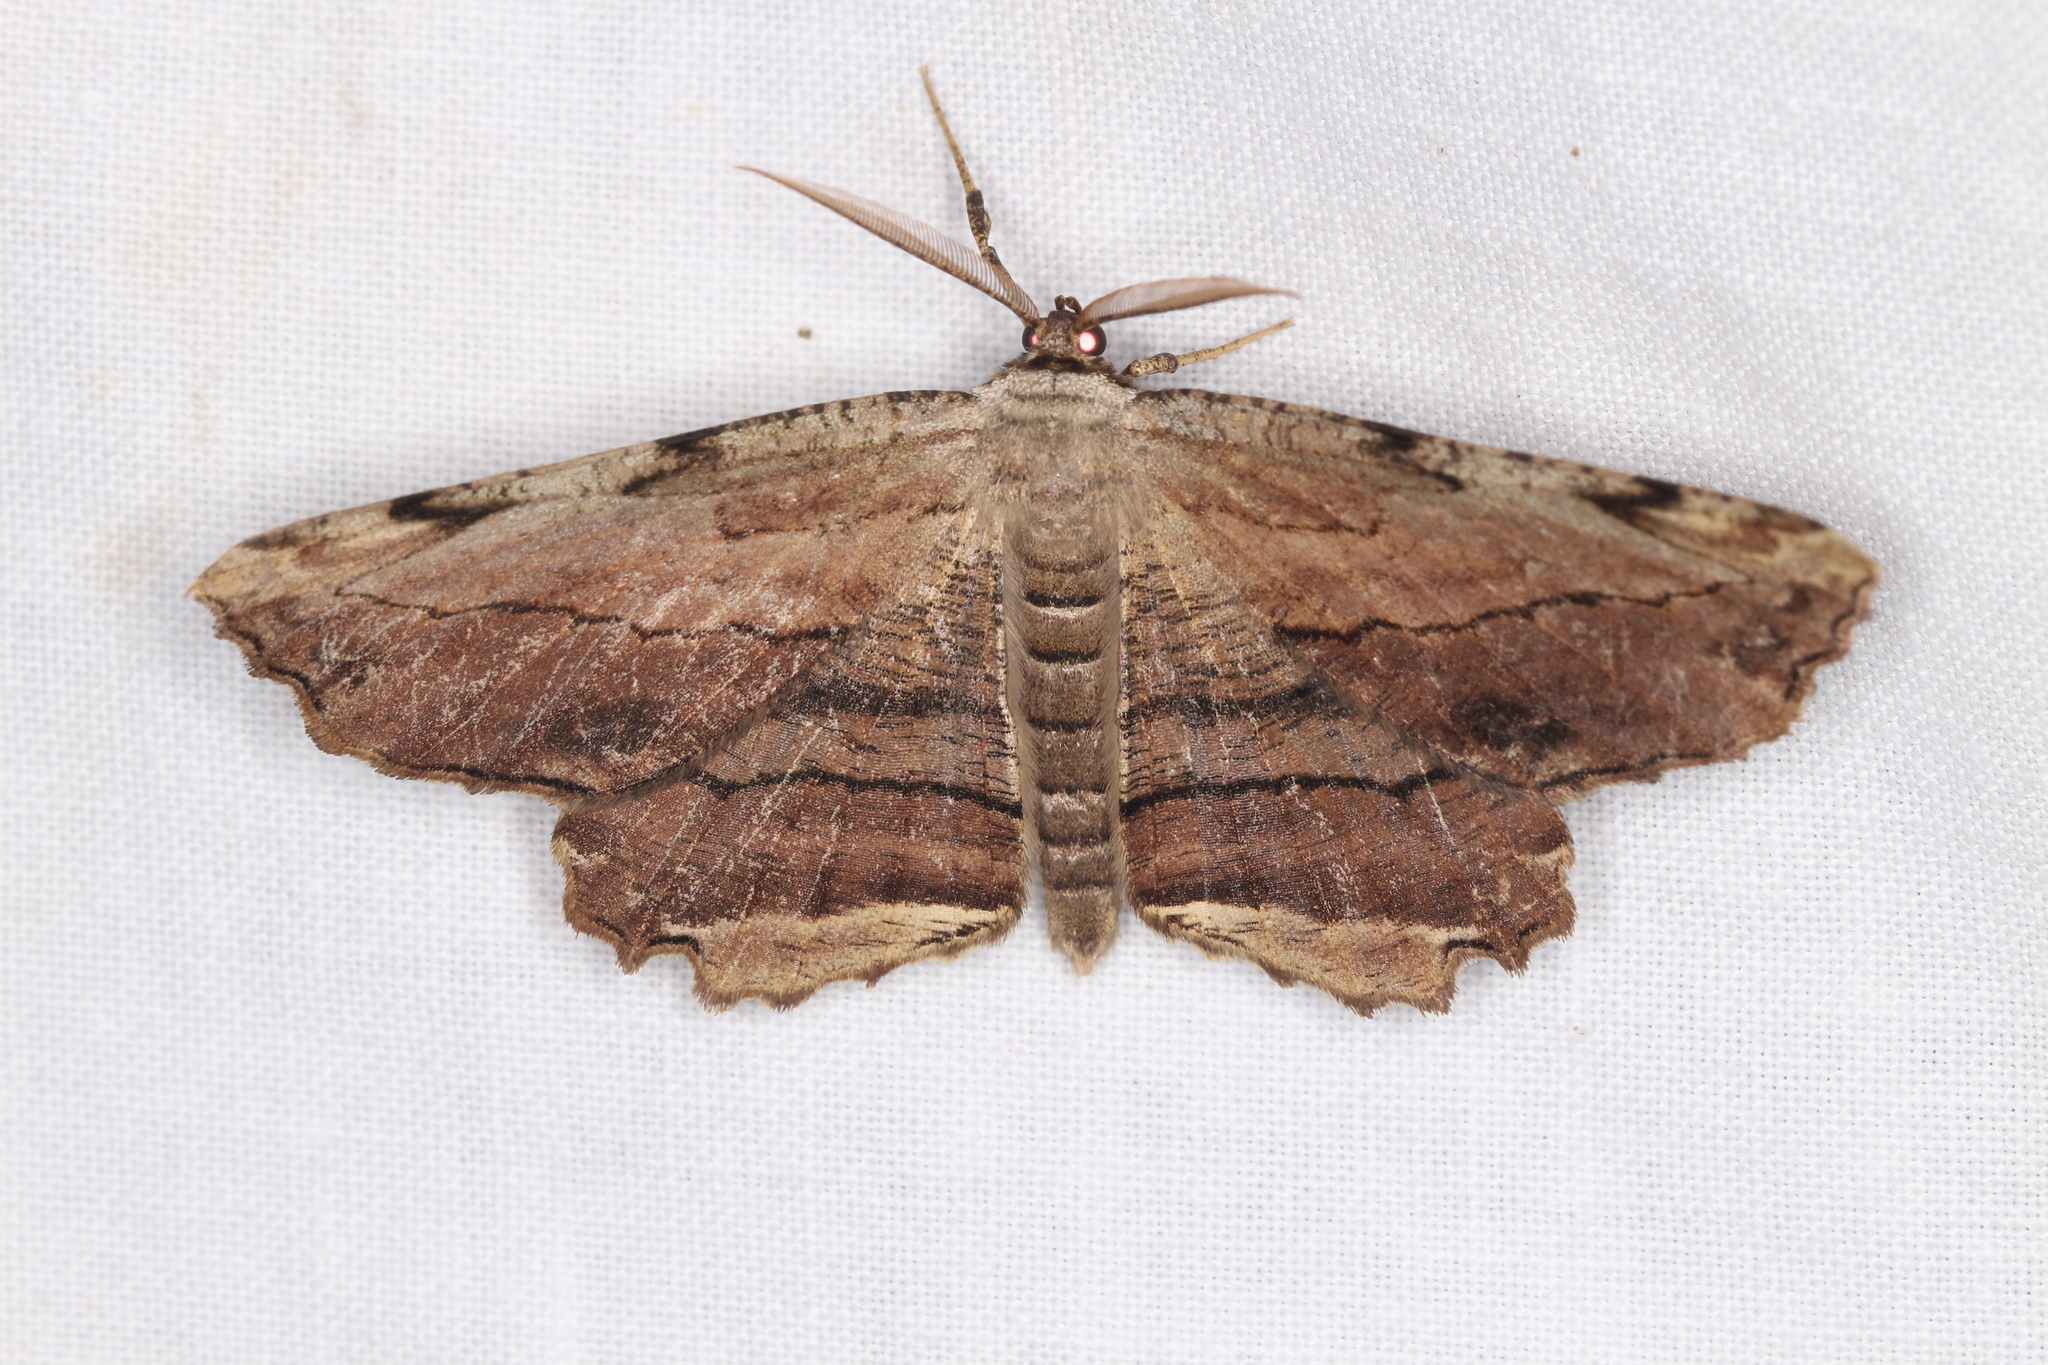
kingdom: Animalia
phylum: Arthropoda
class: Insecta
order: Lepidoptera
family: Geometridae
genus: Lytrosis
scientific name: Lytrosis unitaria
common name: Common lytrosis
